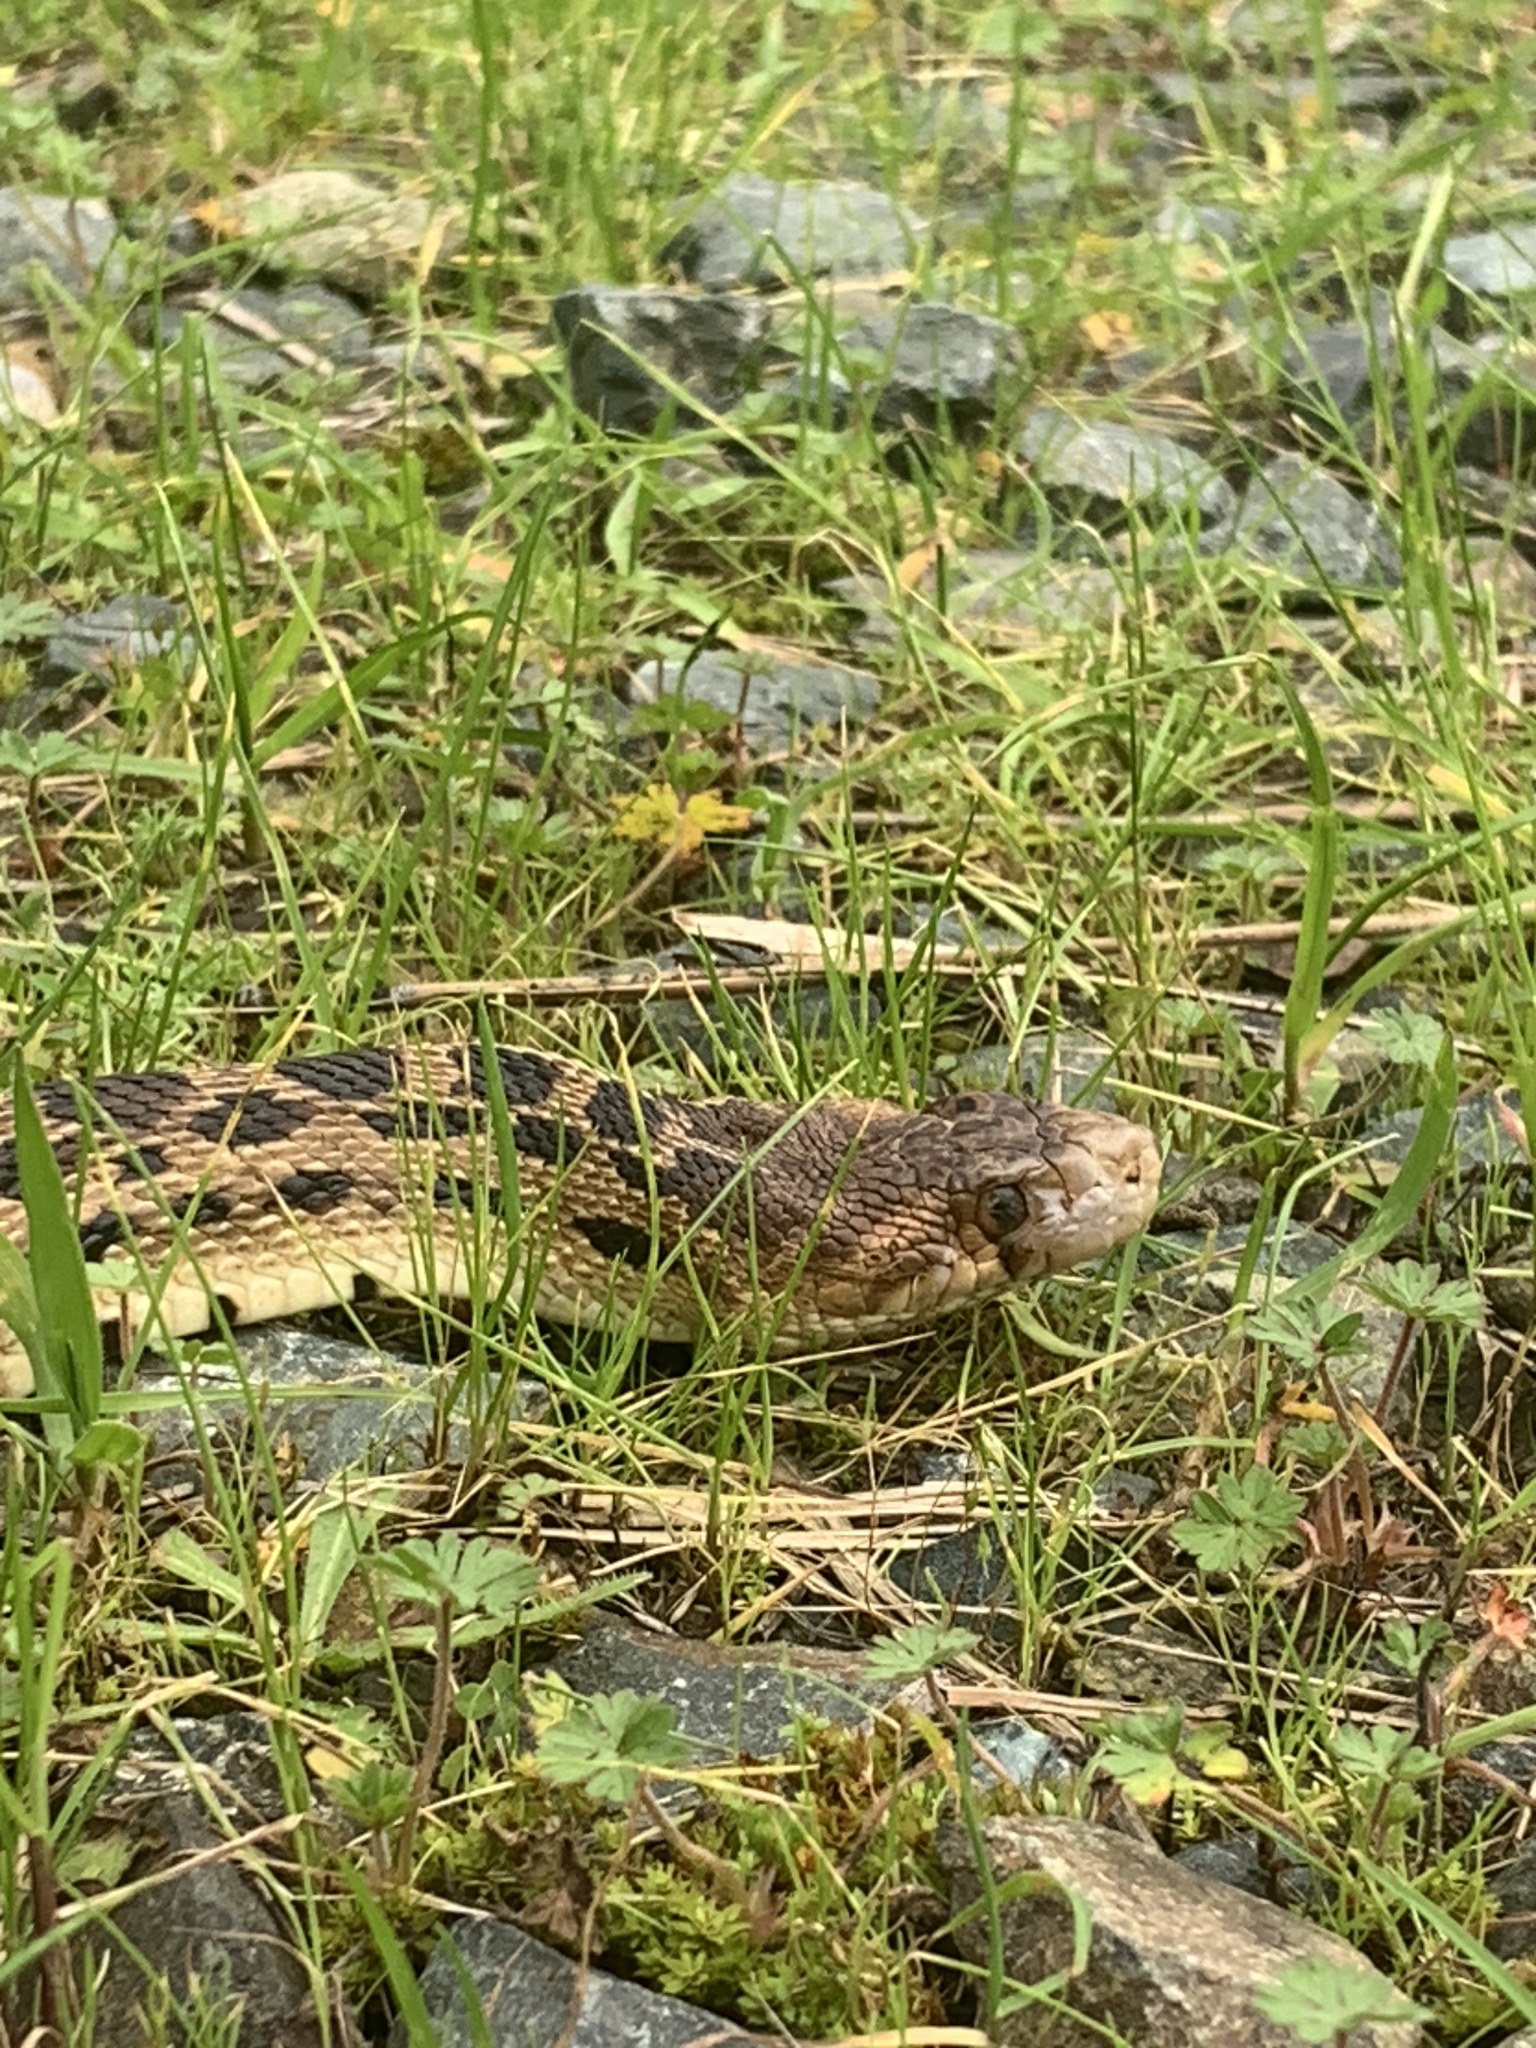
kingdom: Animalia
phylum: Chordata
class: Squamata
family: Colubridae
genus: Pituophis
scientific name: Pituophis catenifer
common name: Gopher snake
